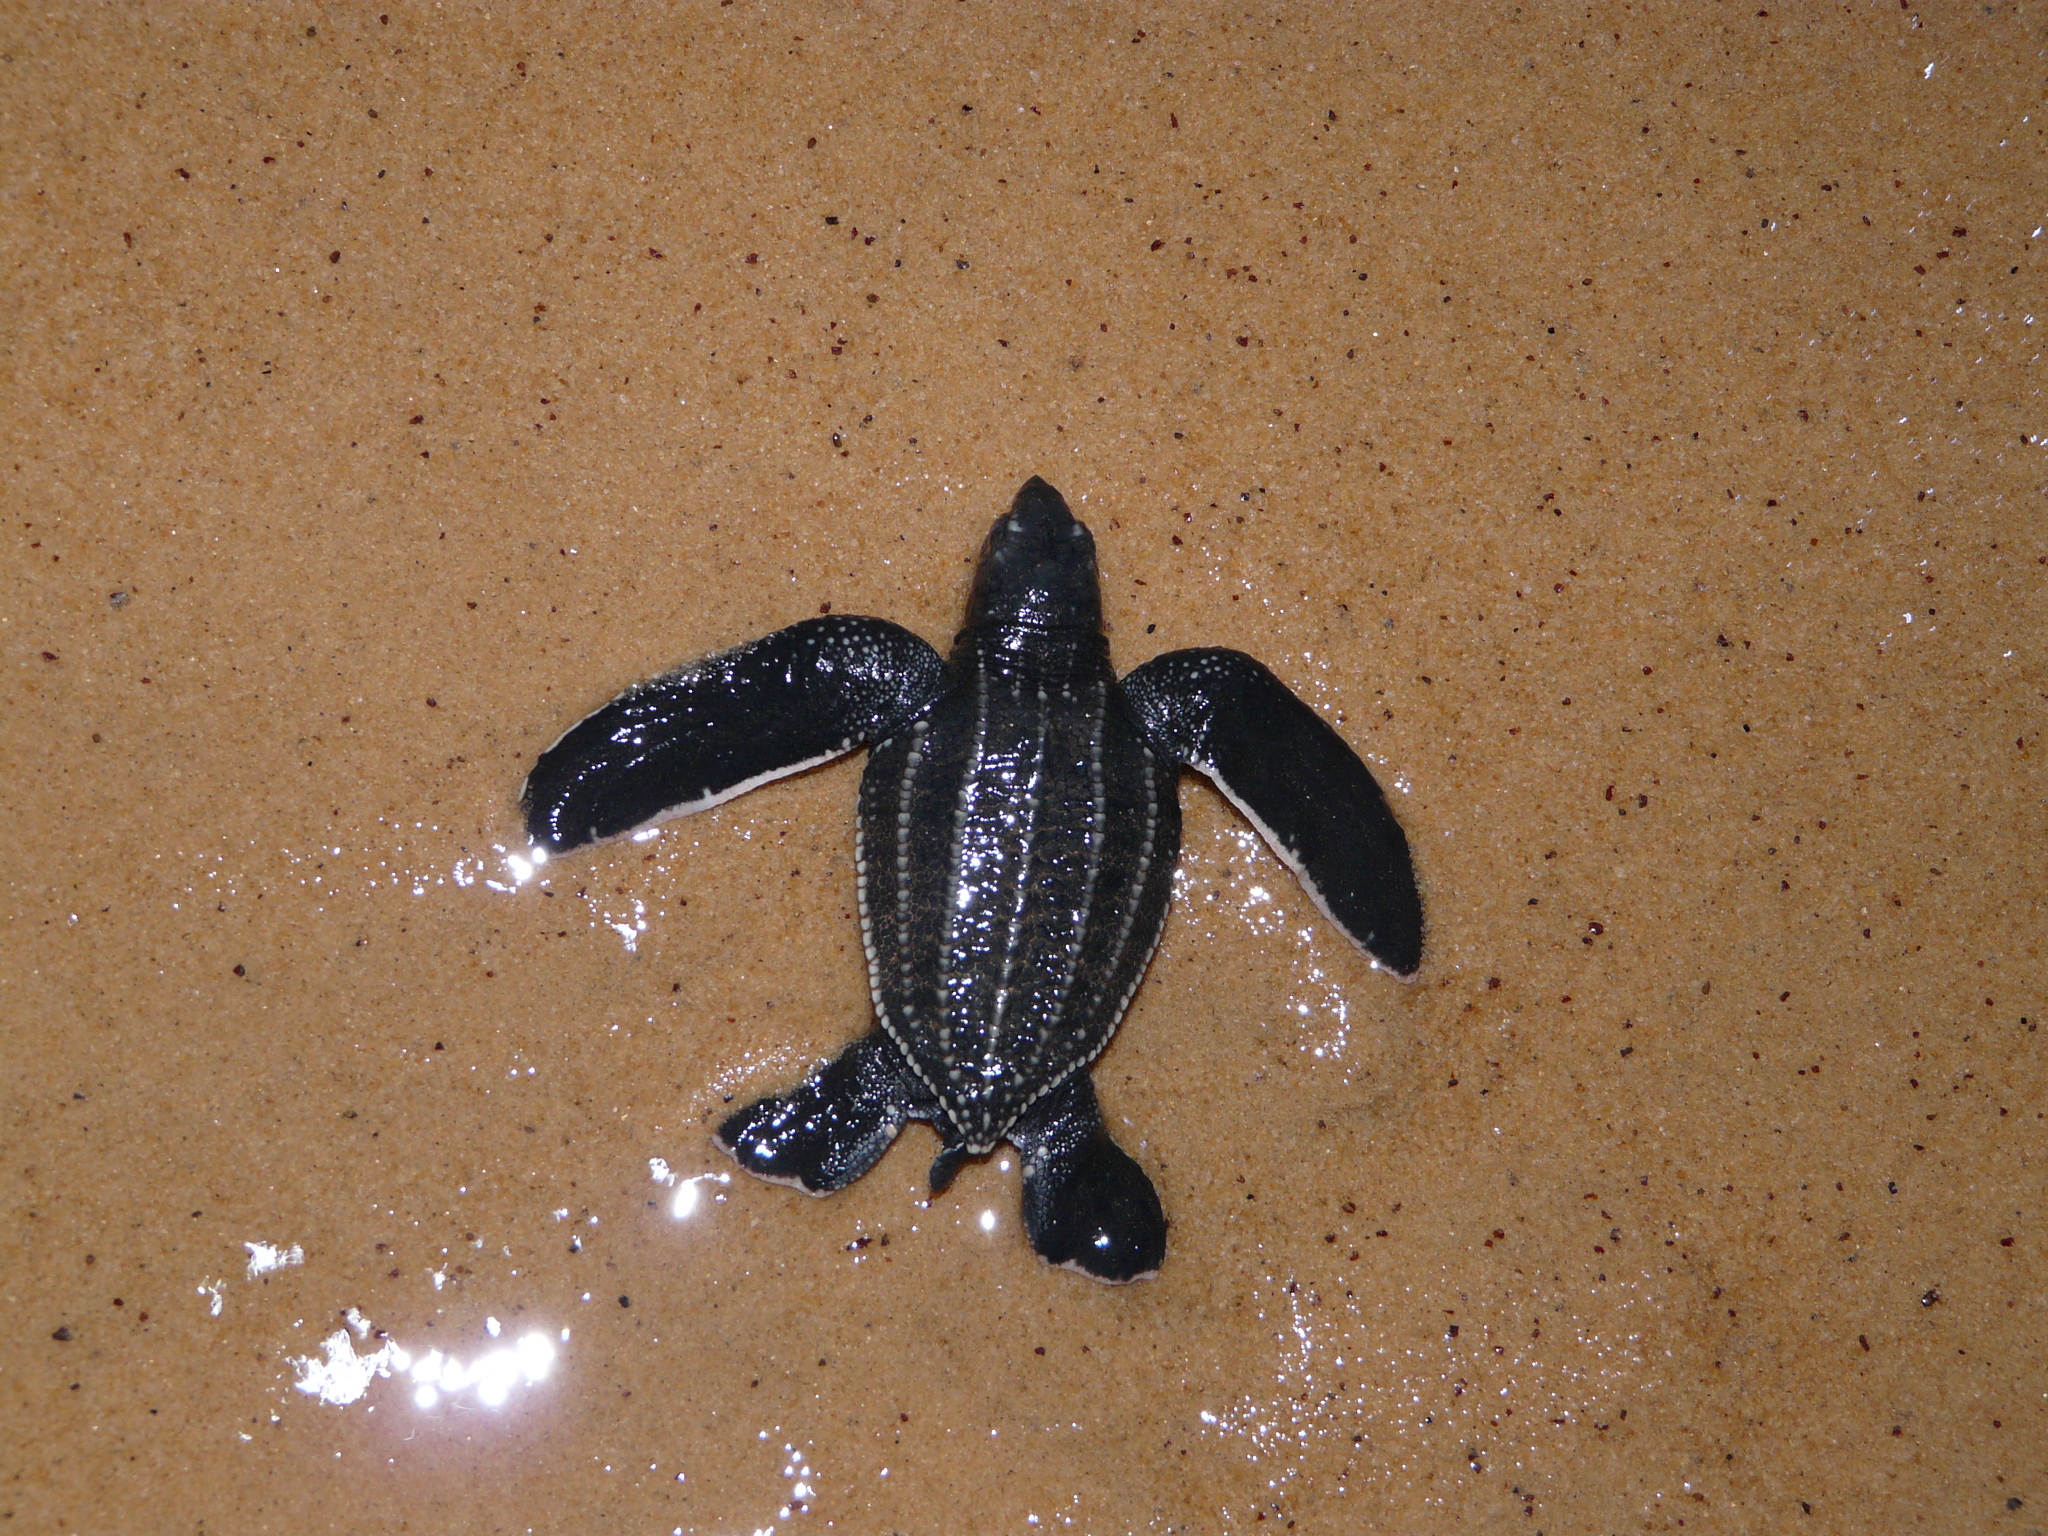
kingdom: Animalia
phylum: Chordata
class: Testudines
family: Dermochelyidae
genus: Dermochelys
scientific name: Dermochelys coriacea
